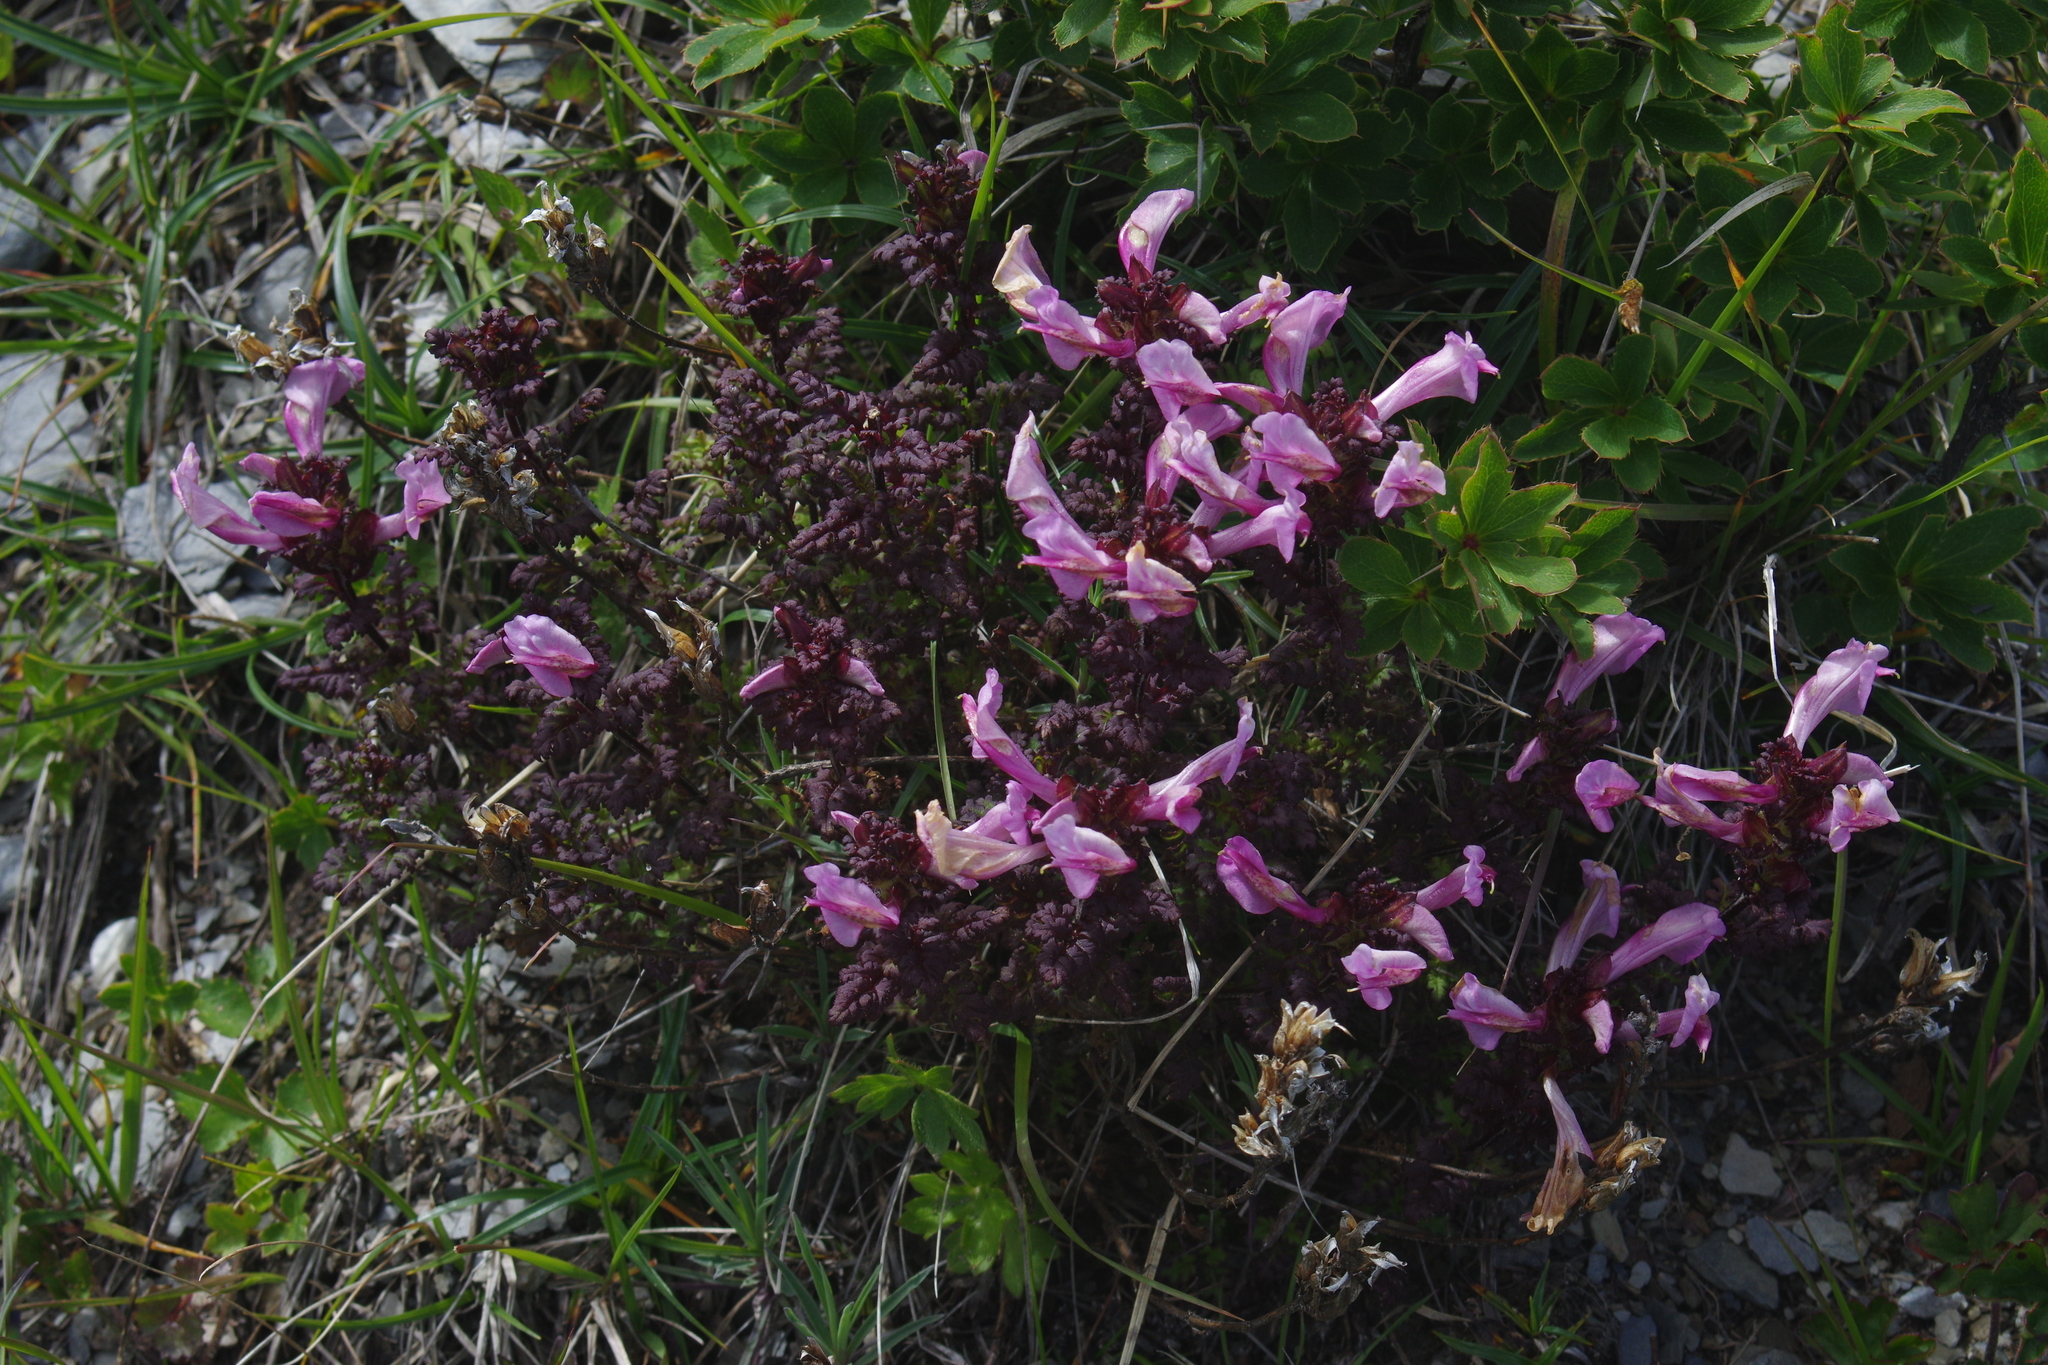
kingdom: Plantae
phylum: Tracheophyta
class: Magnoliopsida
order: Lamiales
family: Orobanchaceae
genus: Pedicularis
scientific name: Pedicularis ikomai
